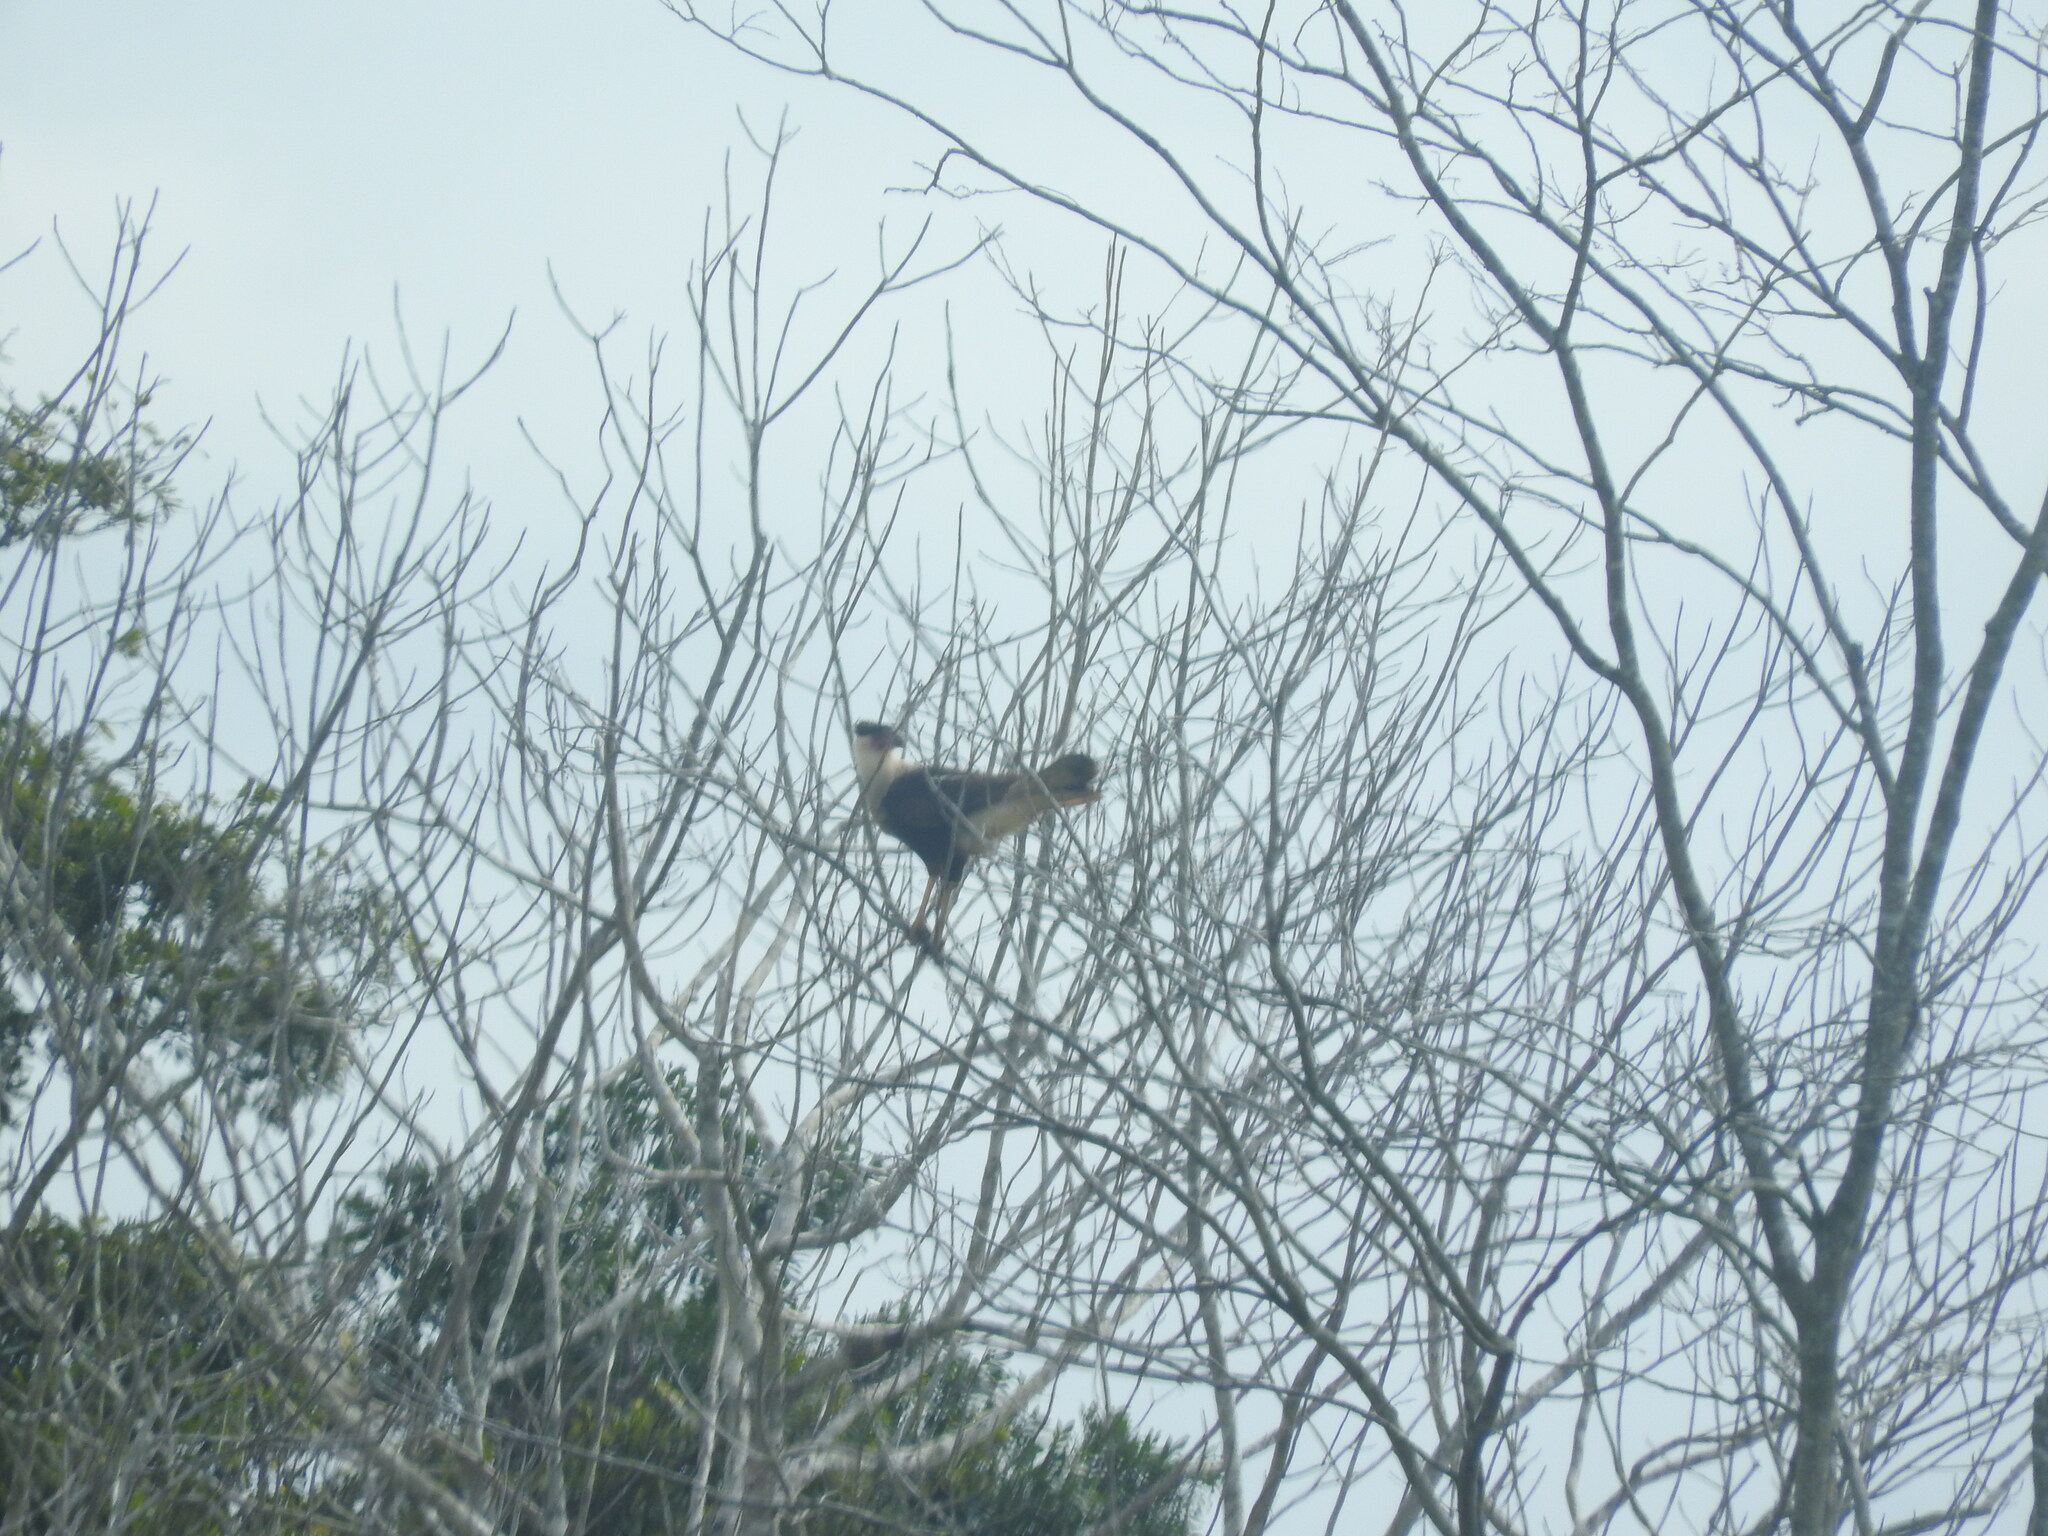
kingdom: Animalia
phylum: Chordata
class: Aves
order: Falconiformes
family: Falconidae
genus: Caracara
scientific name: Caracara plancus
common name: Southern caracara
